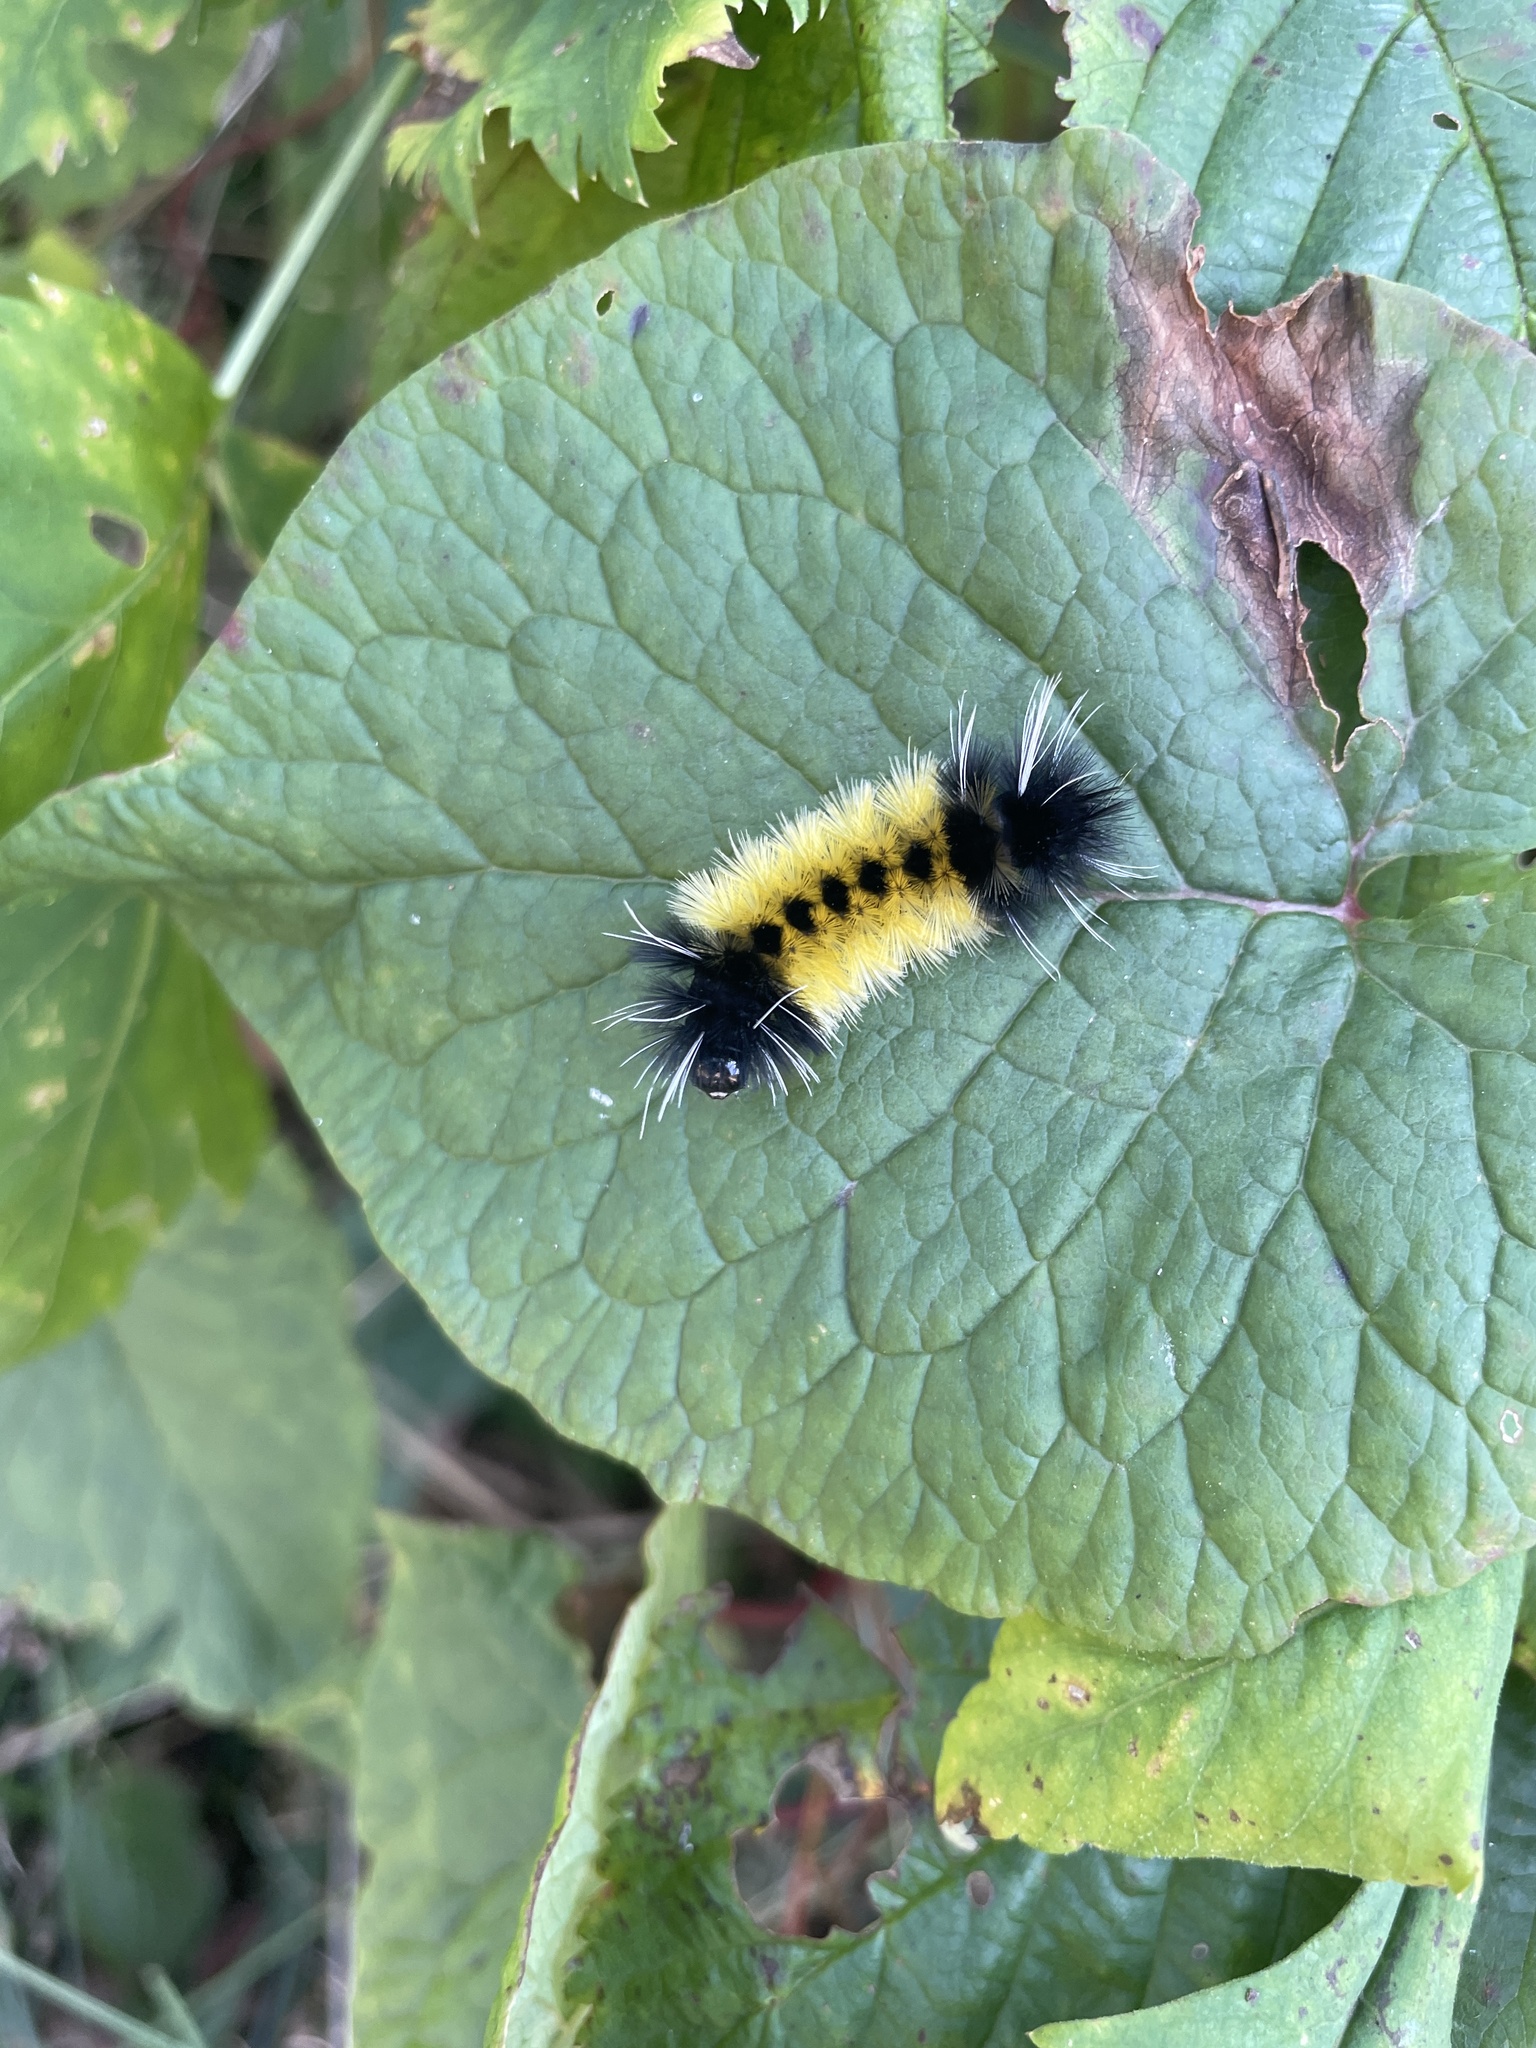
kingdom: Animalia
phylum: Arthropoda
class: Insecta
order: Lepidoptera
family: Erebidae
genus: Lophocampa
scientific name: Lophocampa maculata
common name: Spotted tussock moth
